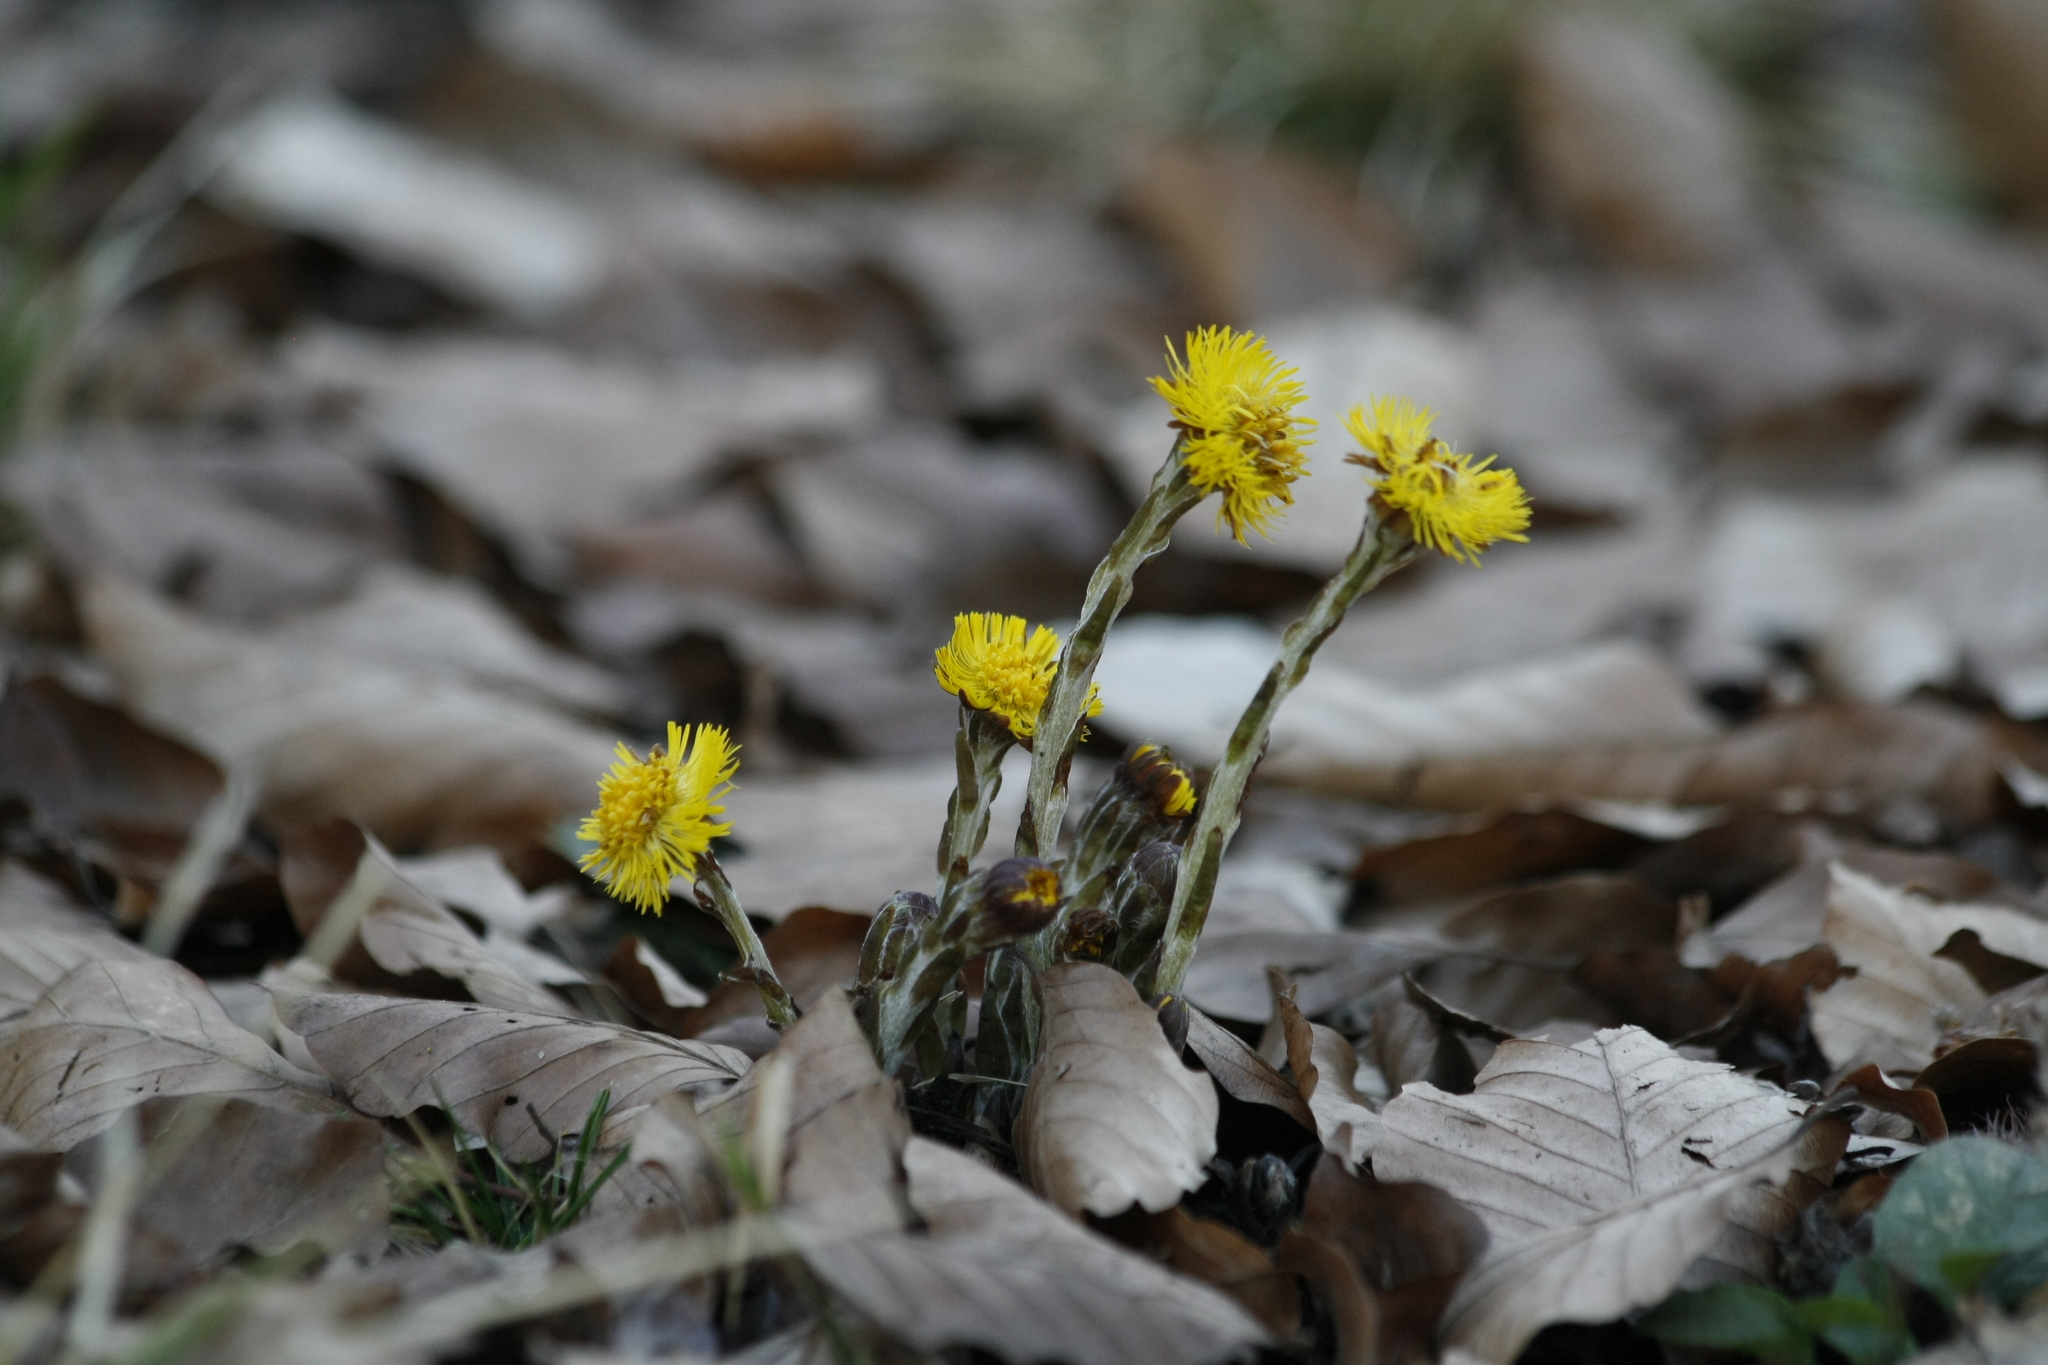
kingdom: Plantae
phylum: Tracheophyta
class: Magnoliopsida
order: Asterales
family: Asteraceae
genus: Tussilago
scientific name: Tussilago farfara
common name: Coltsfoot
